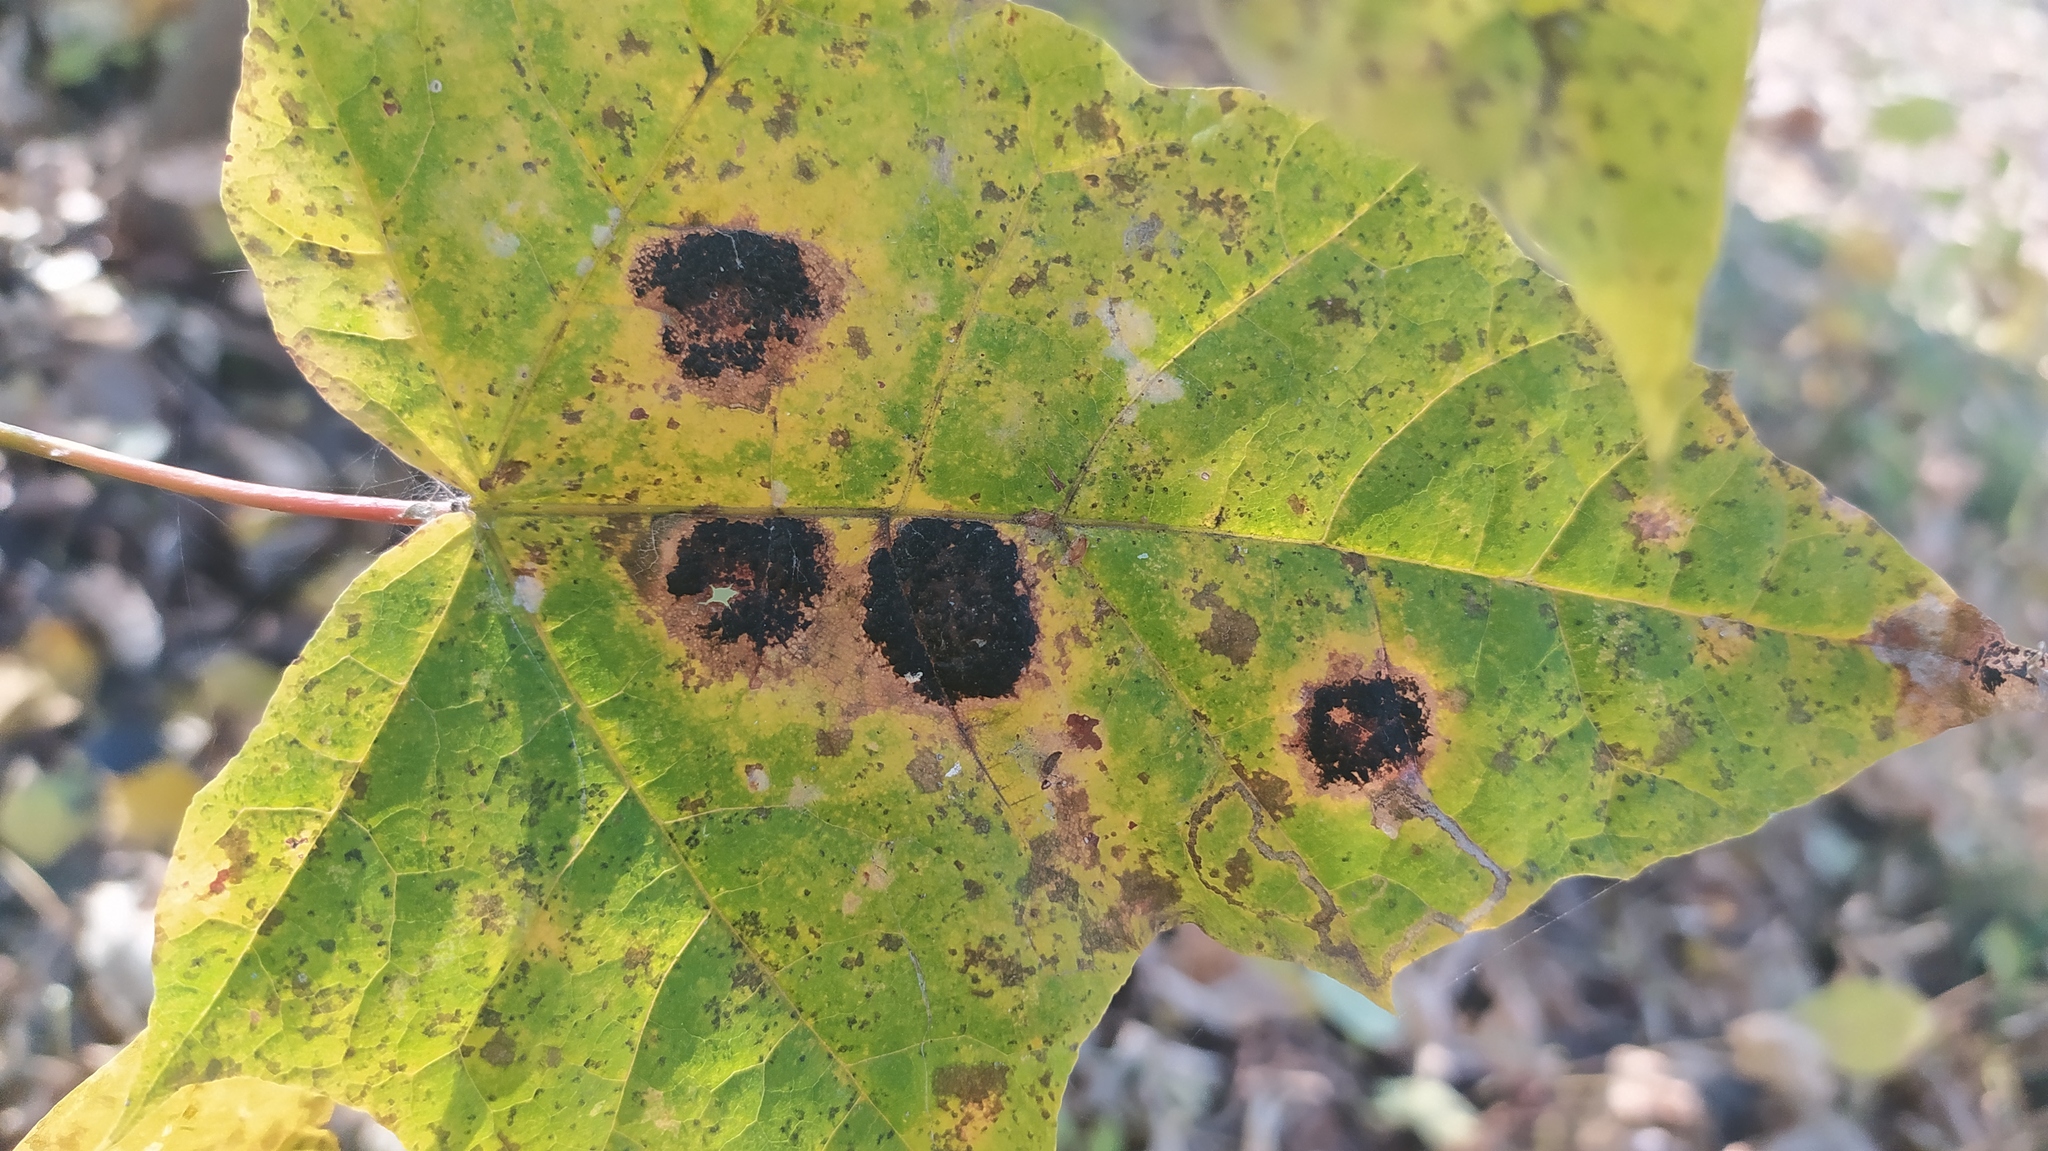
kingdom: Fungi
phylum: Ascomycota
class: Leotiomycetes
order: Rhytismatales
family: Rhytismataceae
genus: Rhytisma
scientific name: Rhytisma acerinum
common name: European tar spot
